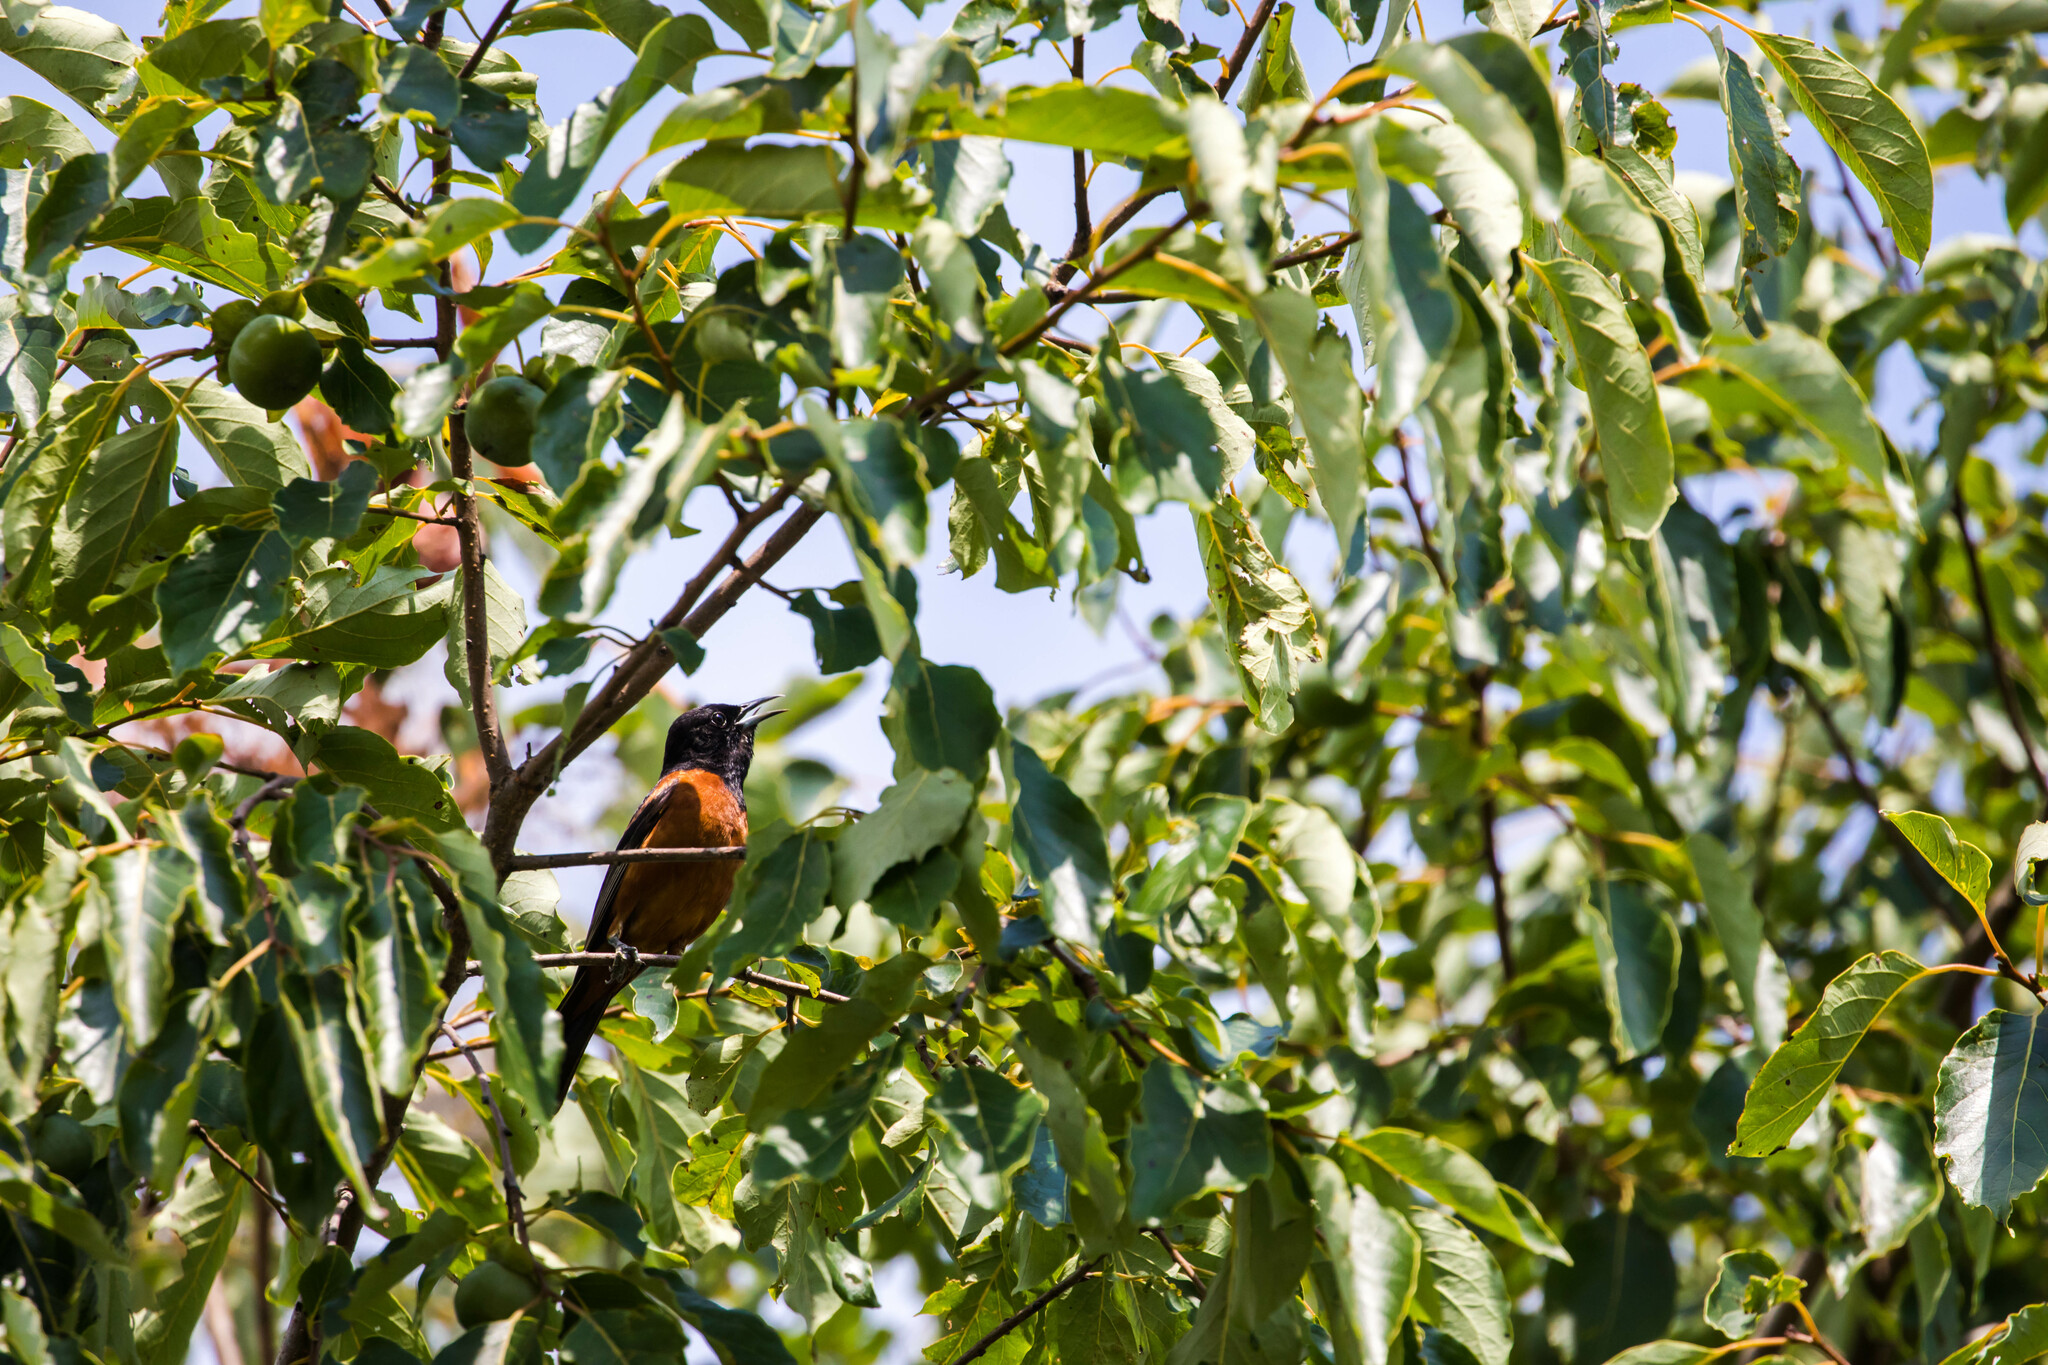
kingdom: Animalia
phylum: Chordata
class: Aves
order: Passeriformes
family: Icteridae
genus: Icterus
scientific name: Icterus spurius
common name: Orchard oriole
